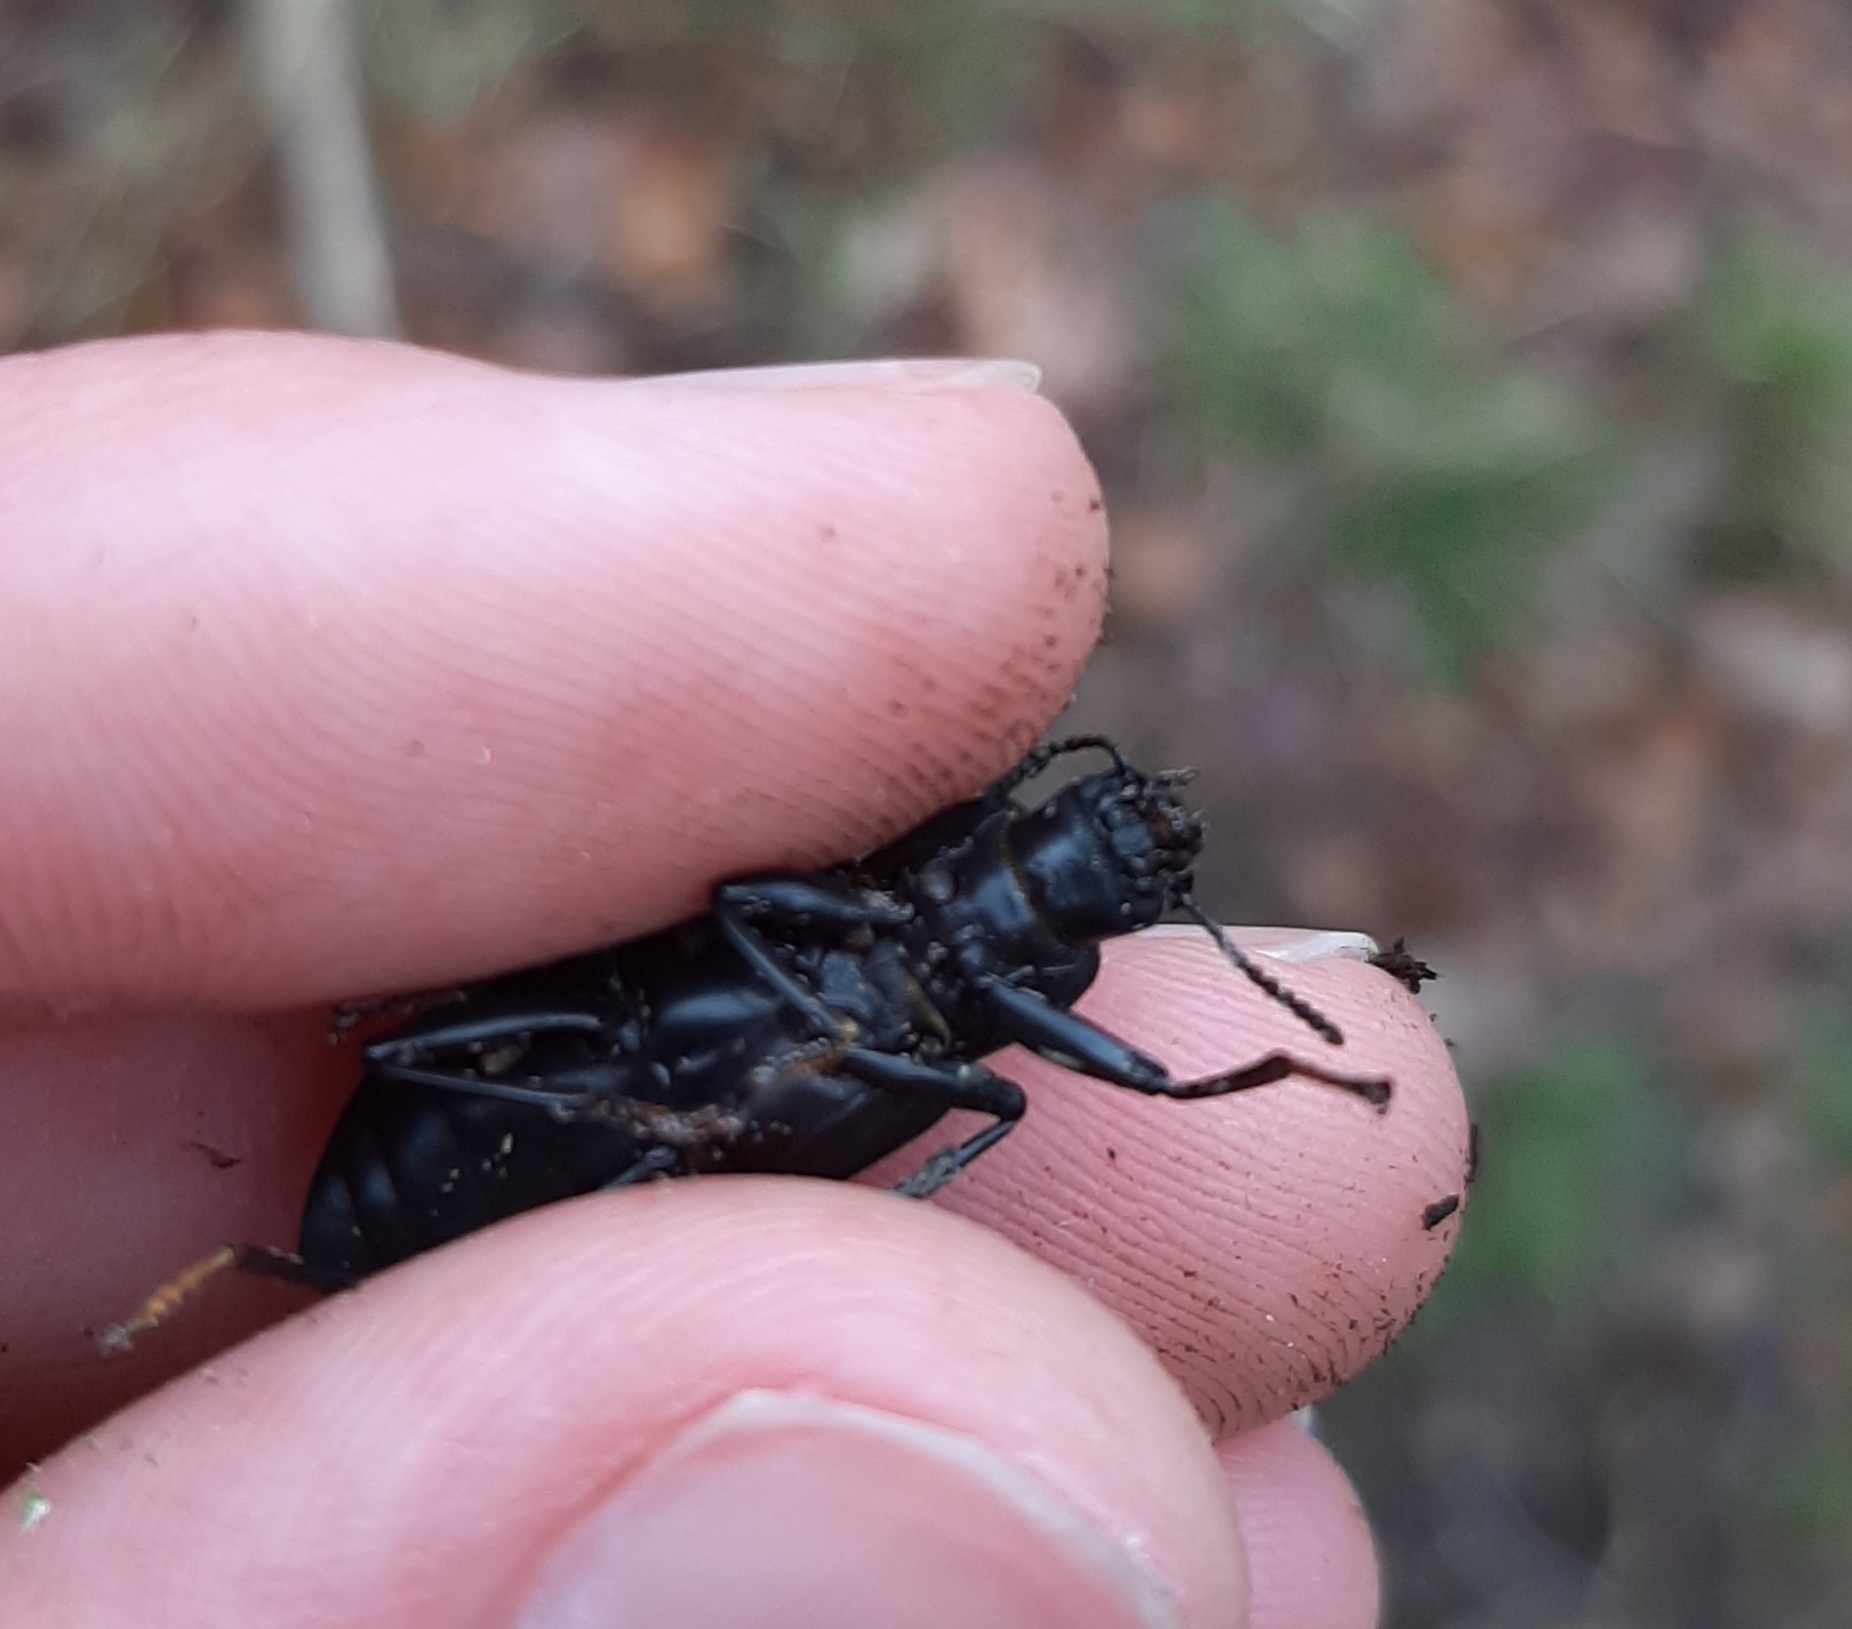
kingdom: Animalia
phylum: Arthropoda
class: Insecta
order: Coleoptera
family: Tenebrionidae
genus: Alobates
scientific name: Alobates pensylvanicus
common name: False mealworm beetle
